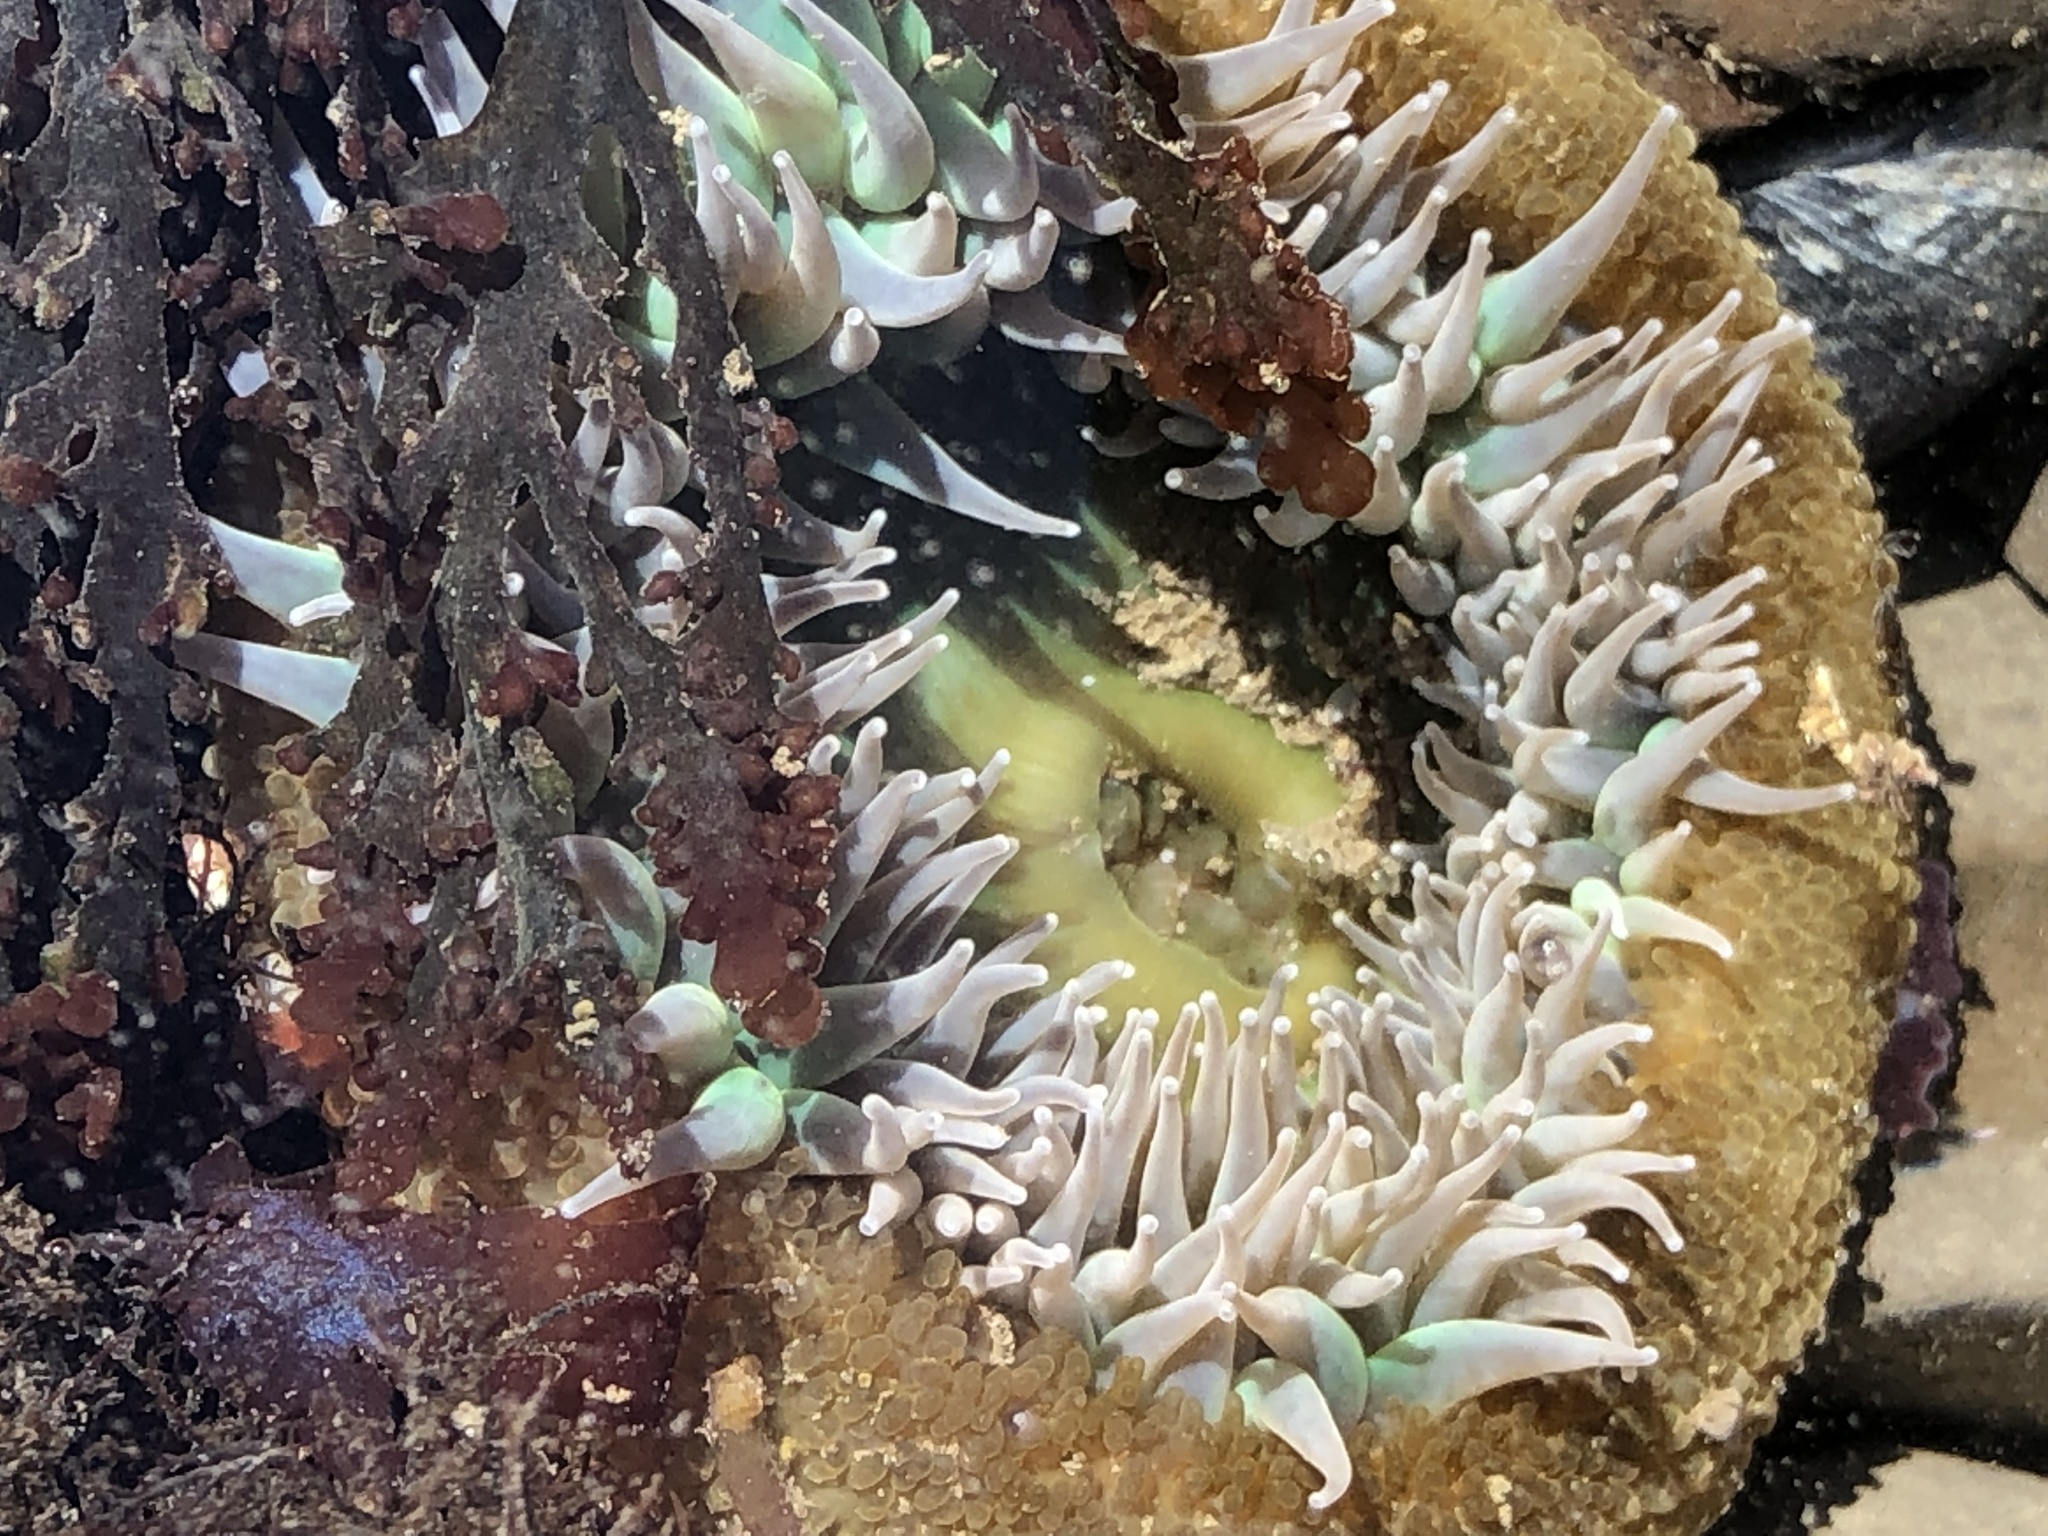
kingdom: Animalia
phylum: Cnidaria
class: Anthozoa
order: Actiniaria
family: Actiniidae
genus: Anthopleura
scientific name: Anthopleura xanthogrammica
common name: Giant green anemone
